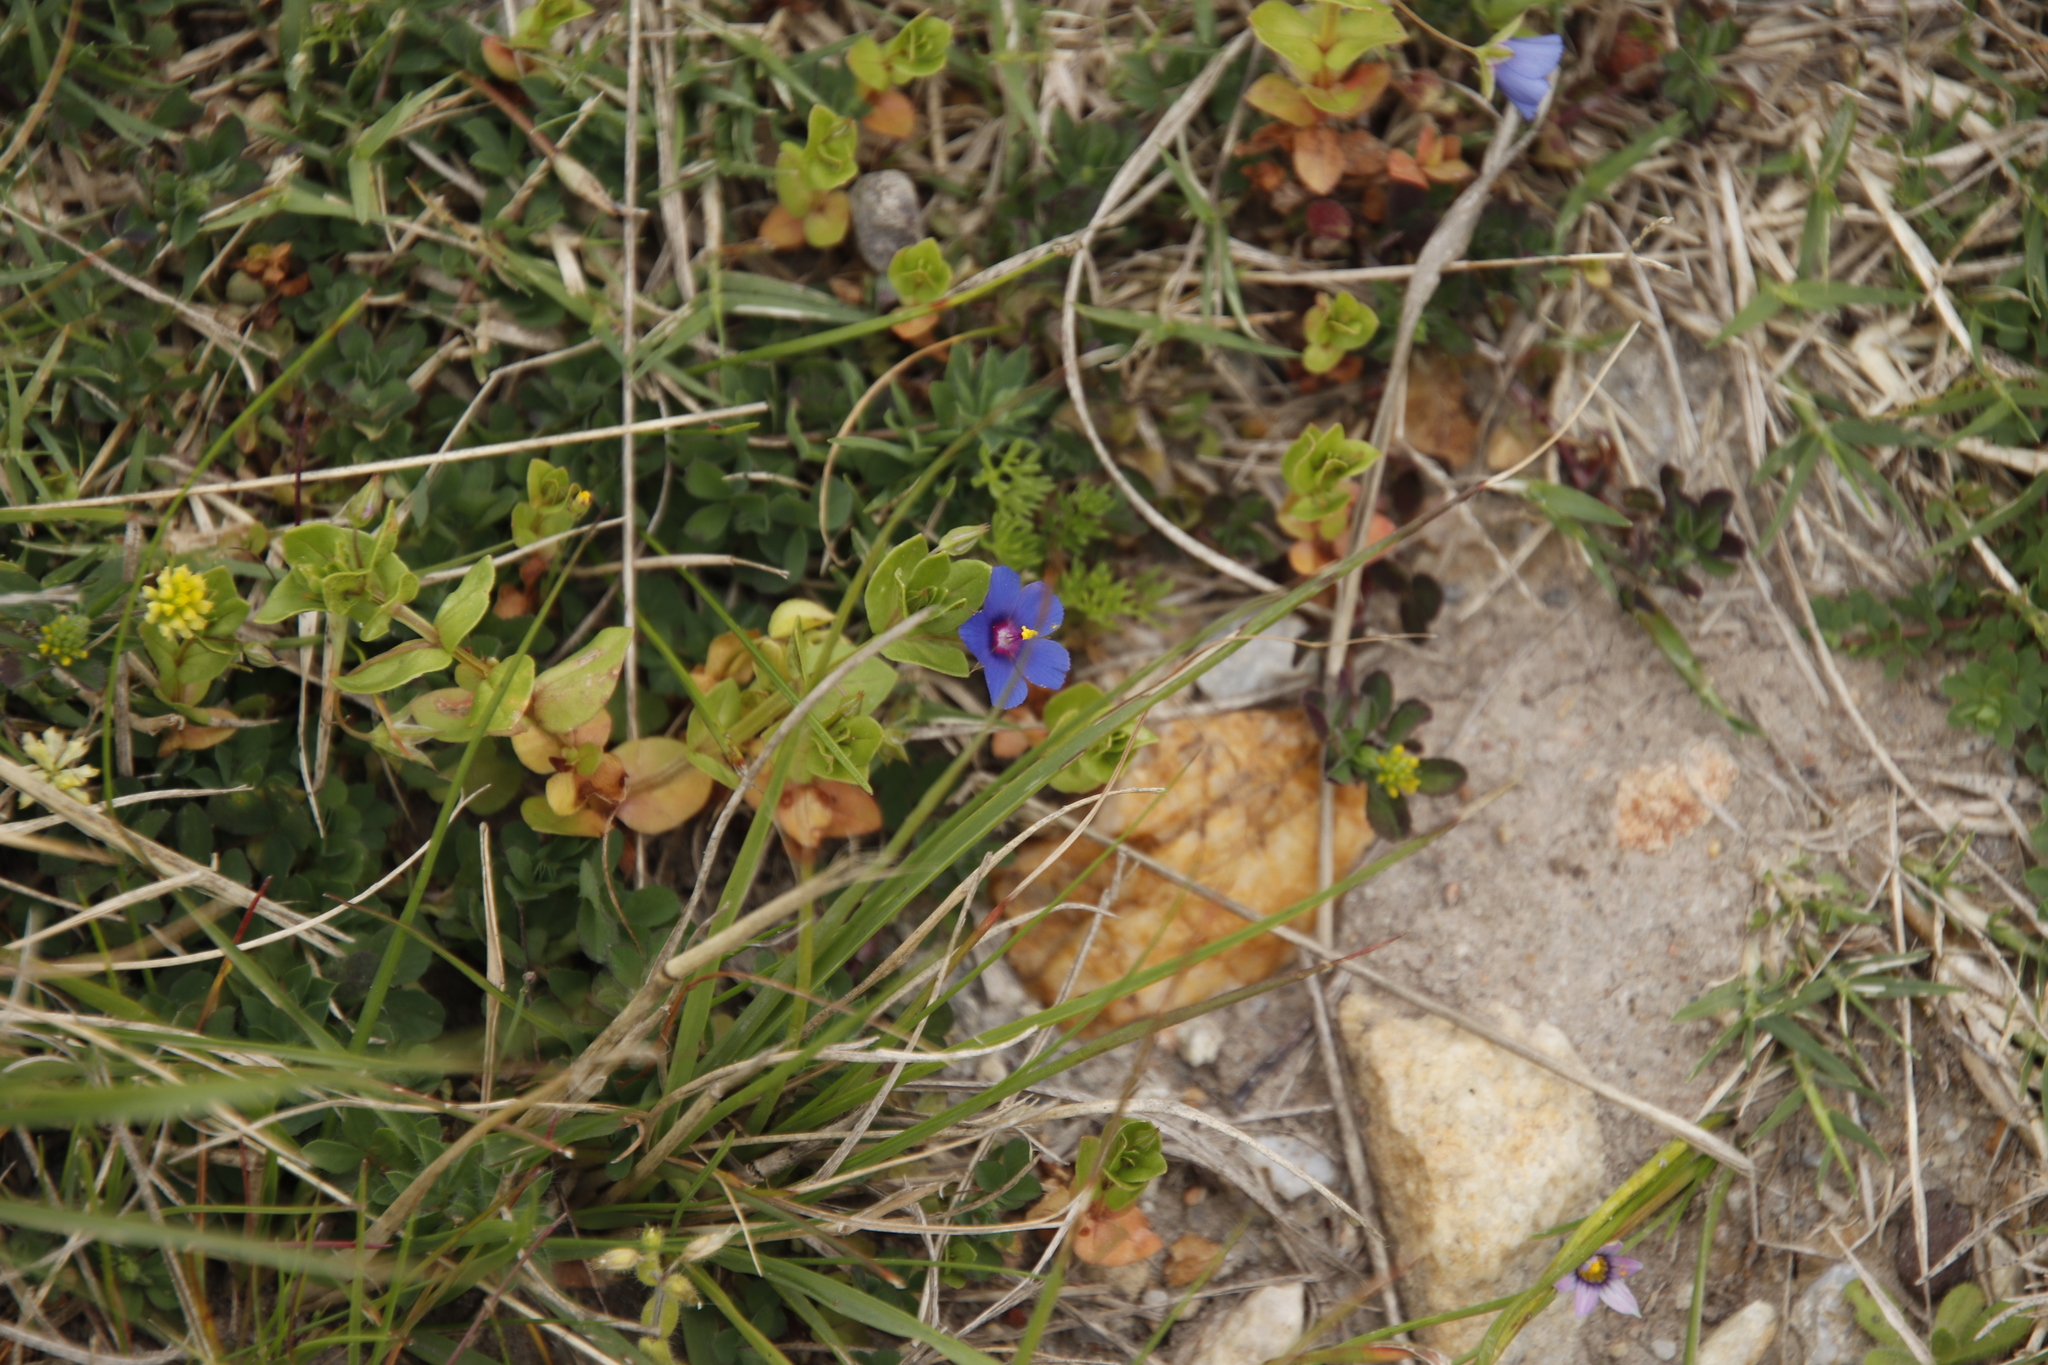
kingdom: Plantae
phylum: Tracheophyta
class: Magnoliopsida
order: Ericales
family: Primulaceae
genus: Lysimachia
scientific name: Lysimachia loeflingii
